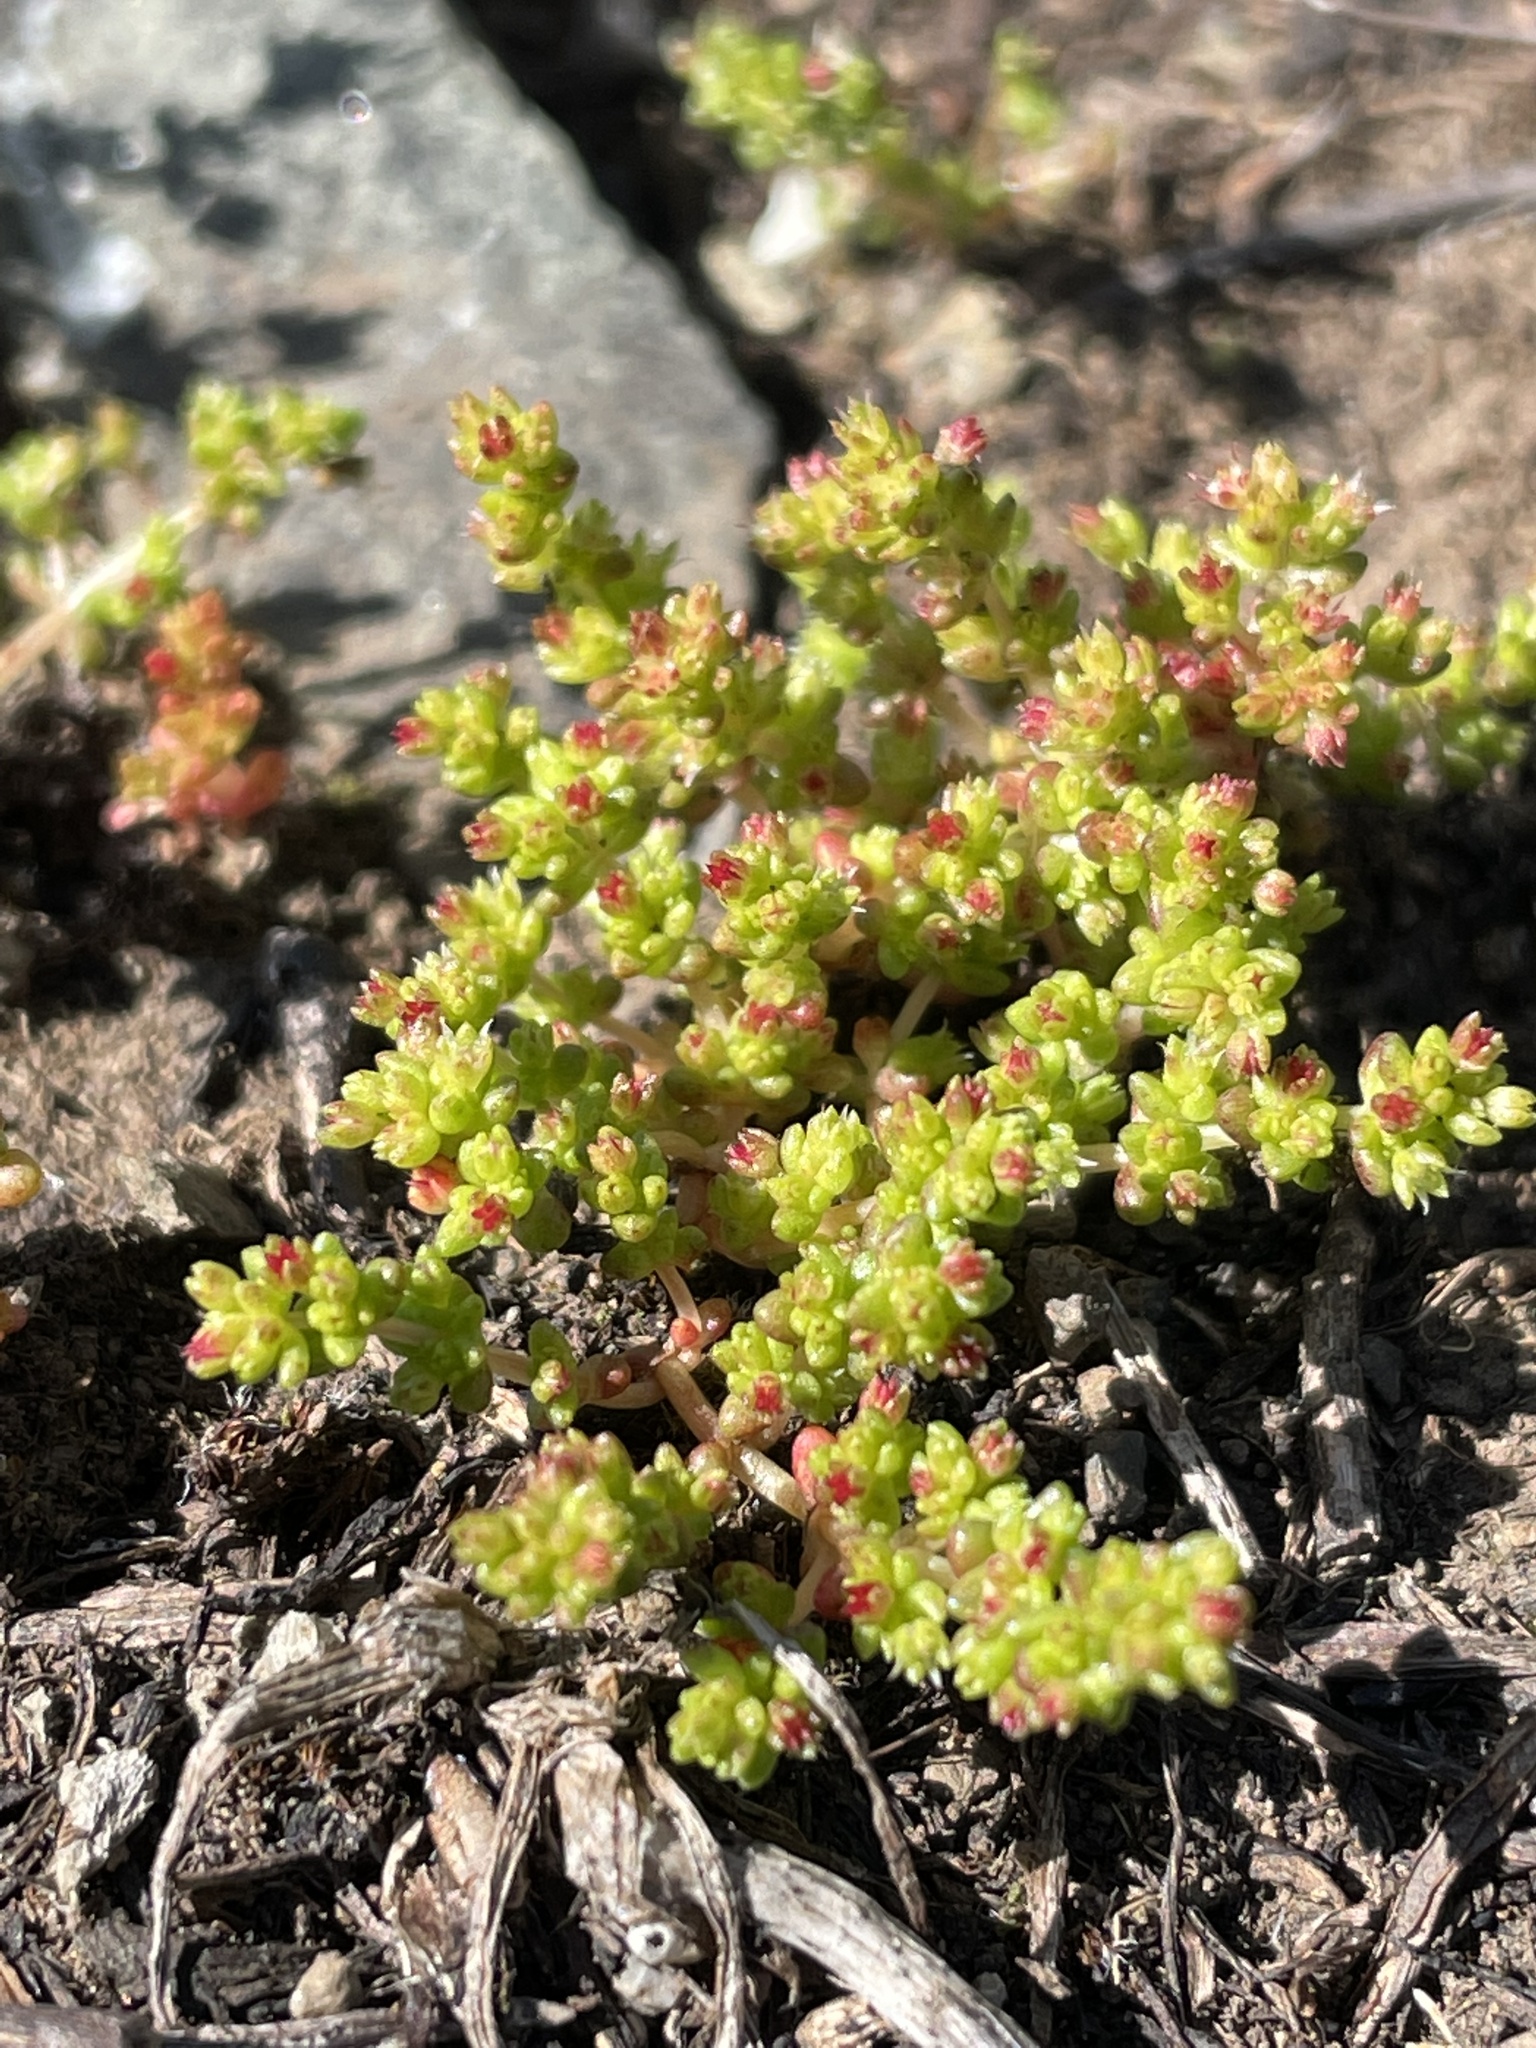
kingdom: Plantae
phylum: Tracheophyta
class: Magnoliopsida
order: Saxifragales
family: Crassulaceae
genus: Crassula
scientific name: Crassula connata
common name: Erect pygmyweed
